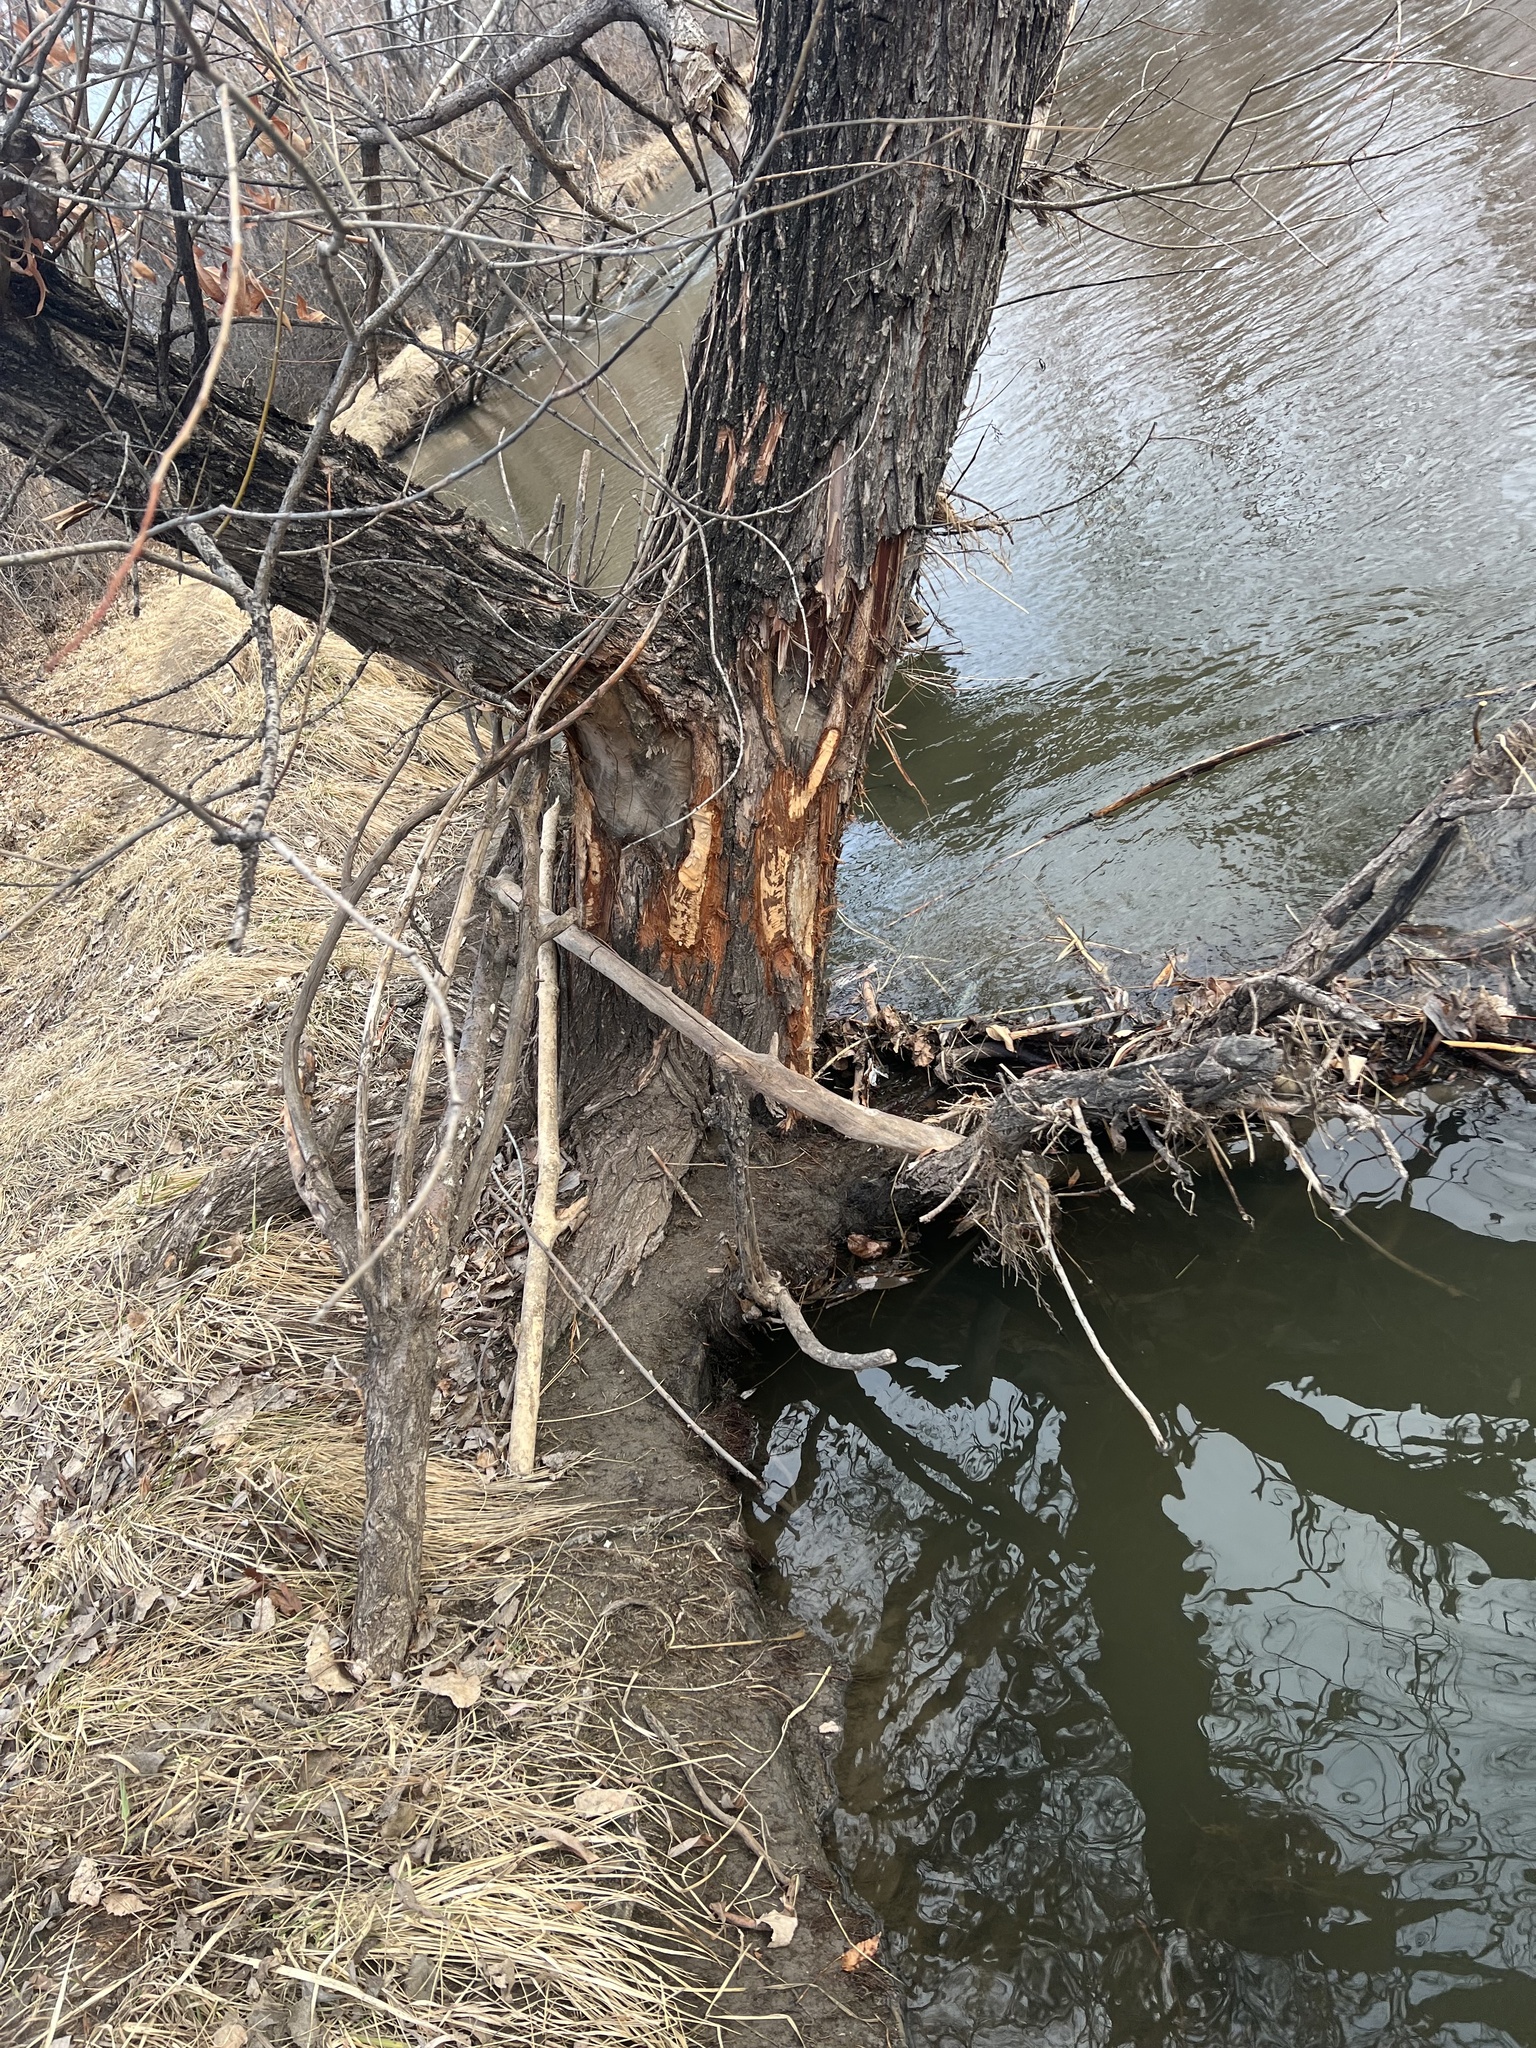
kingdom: Animalia
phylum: Chordata
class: Mammalia
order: Rodentia
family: Castoridae
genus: Castor
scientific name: Castor canadensis
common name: American beaver
